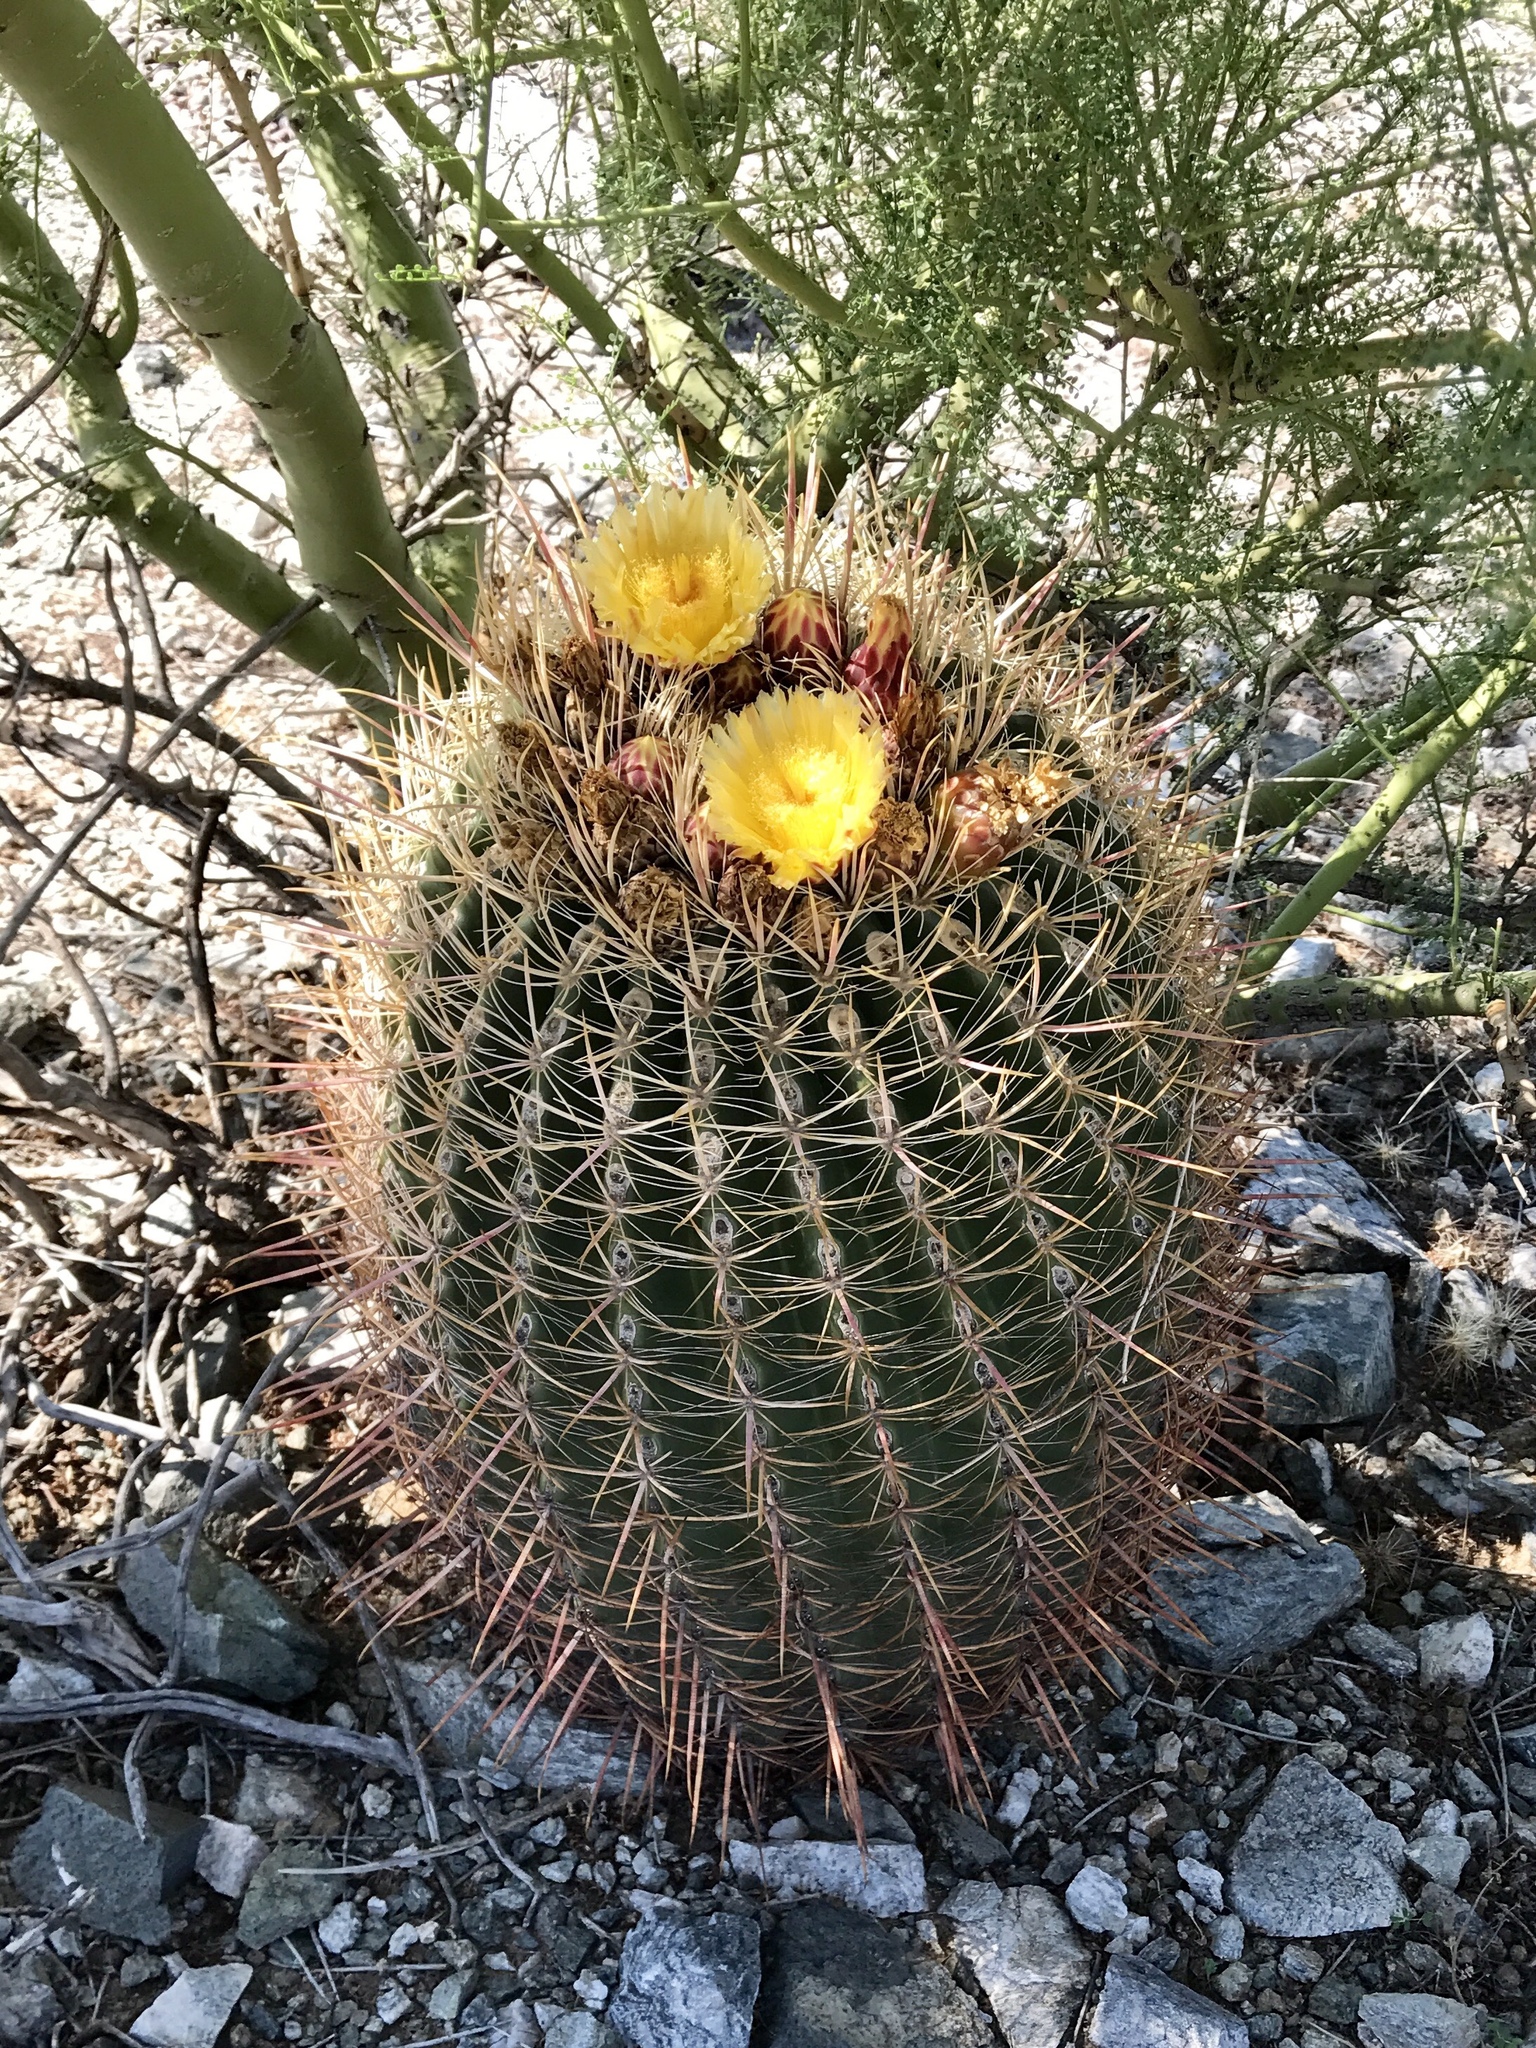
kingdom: Plantae
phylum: Tracheophyta
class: Magnoliopsida
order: Caryophyllales
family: Cactaceae
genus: Ferocactus
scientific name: Ferocactus cylindraceus
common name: California barrel cactus
